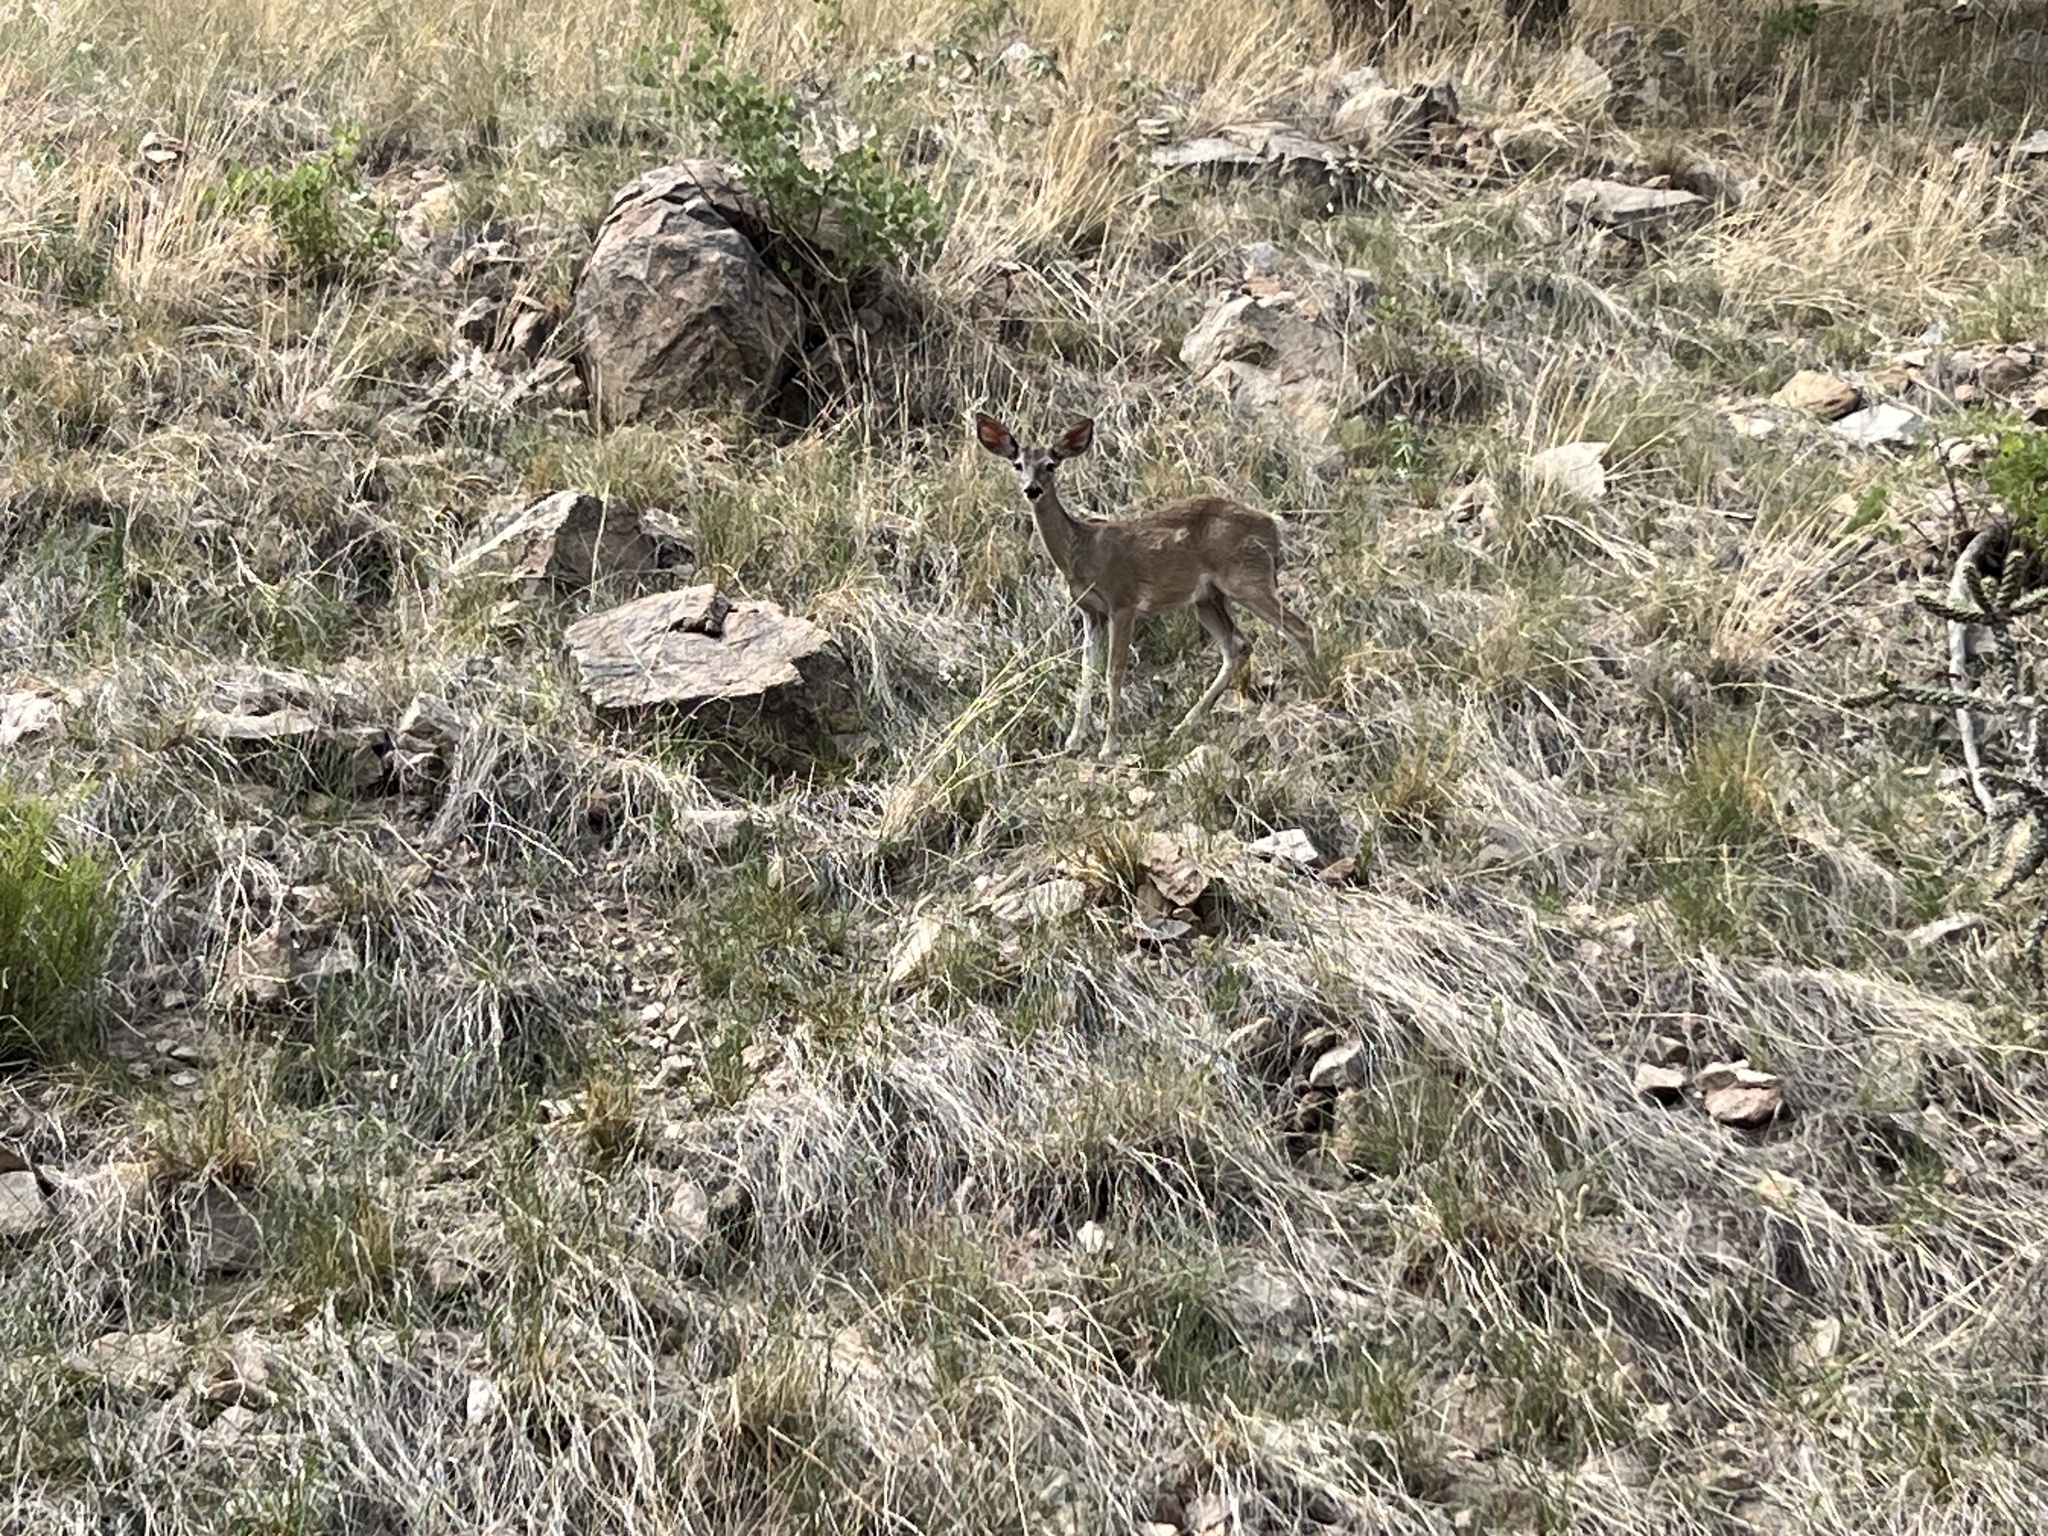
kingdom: Animalia
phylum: Chordata
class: Mammalia
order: Artiodactyla
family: Cervidae
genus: Odocoileus
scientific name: Odocoileus virginianus
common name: White-tailed deer
